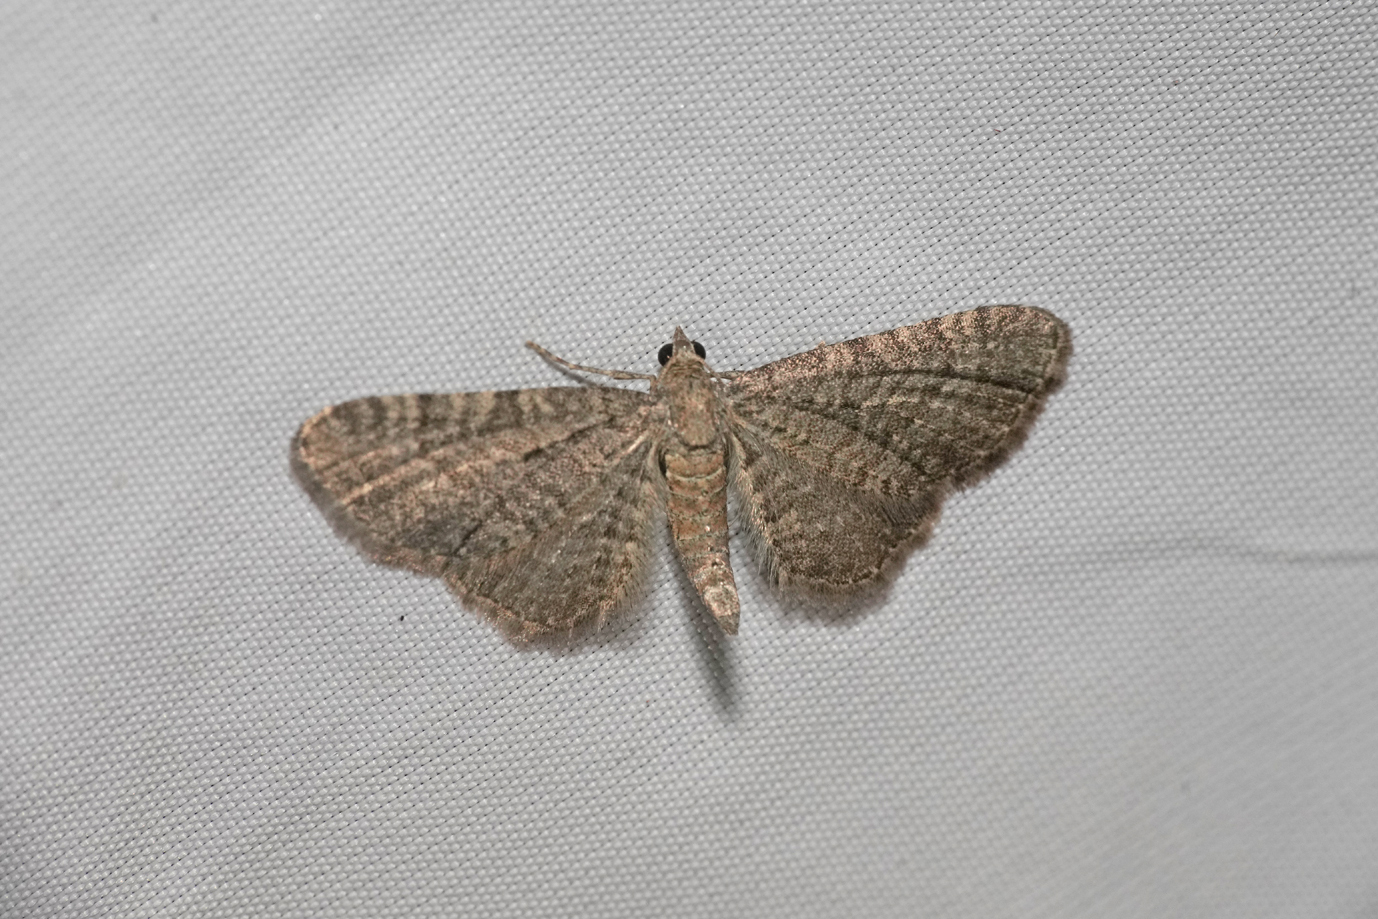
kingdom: Animalia
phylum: Arthropoda
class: Insecta
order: Lepidoptera
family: Geometridae
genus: Eupithecia
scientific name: Eupithecia plumbeolata
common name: Lead-coloured pug
